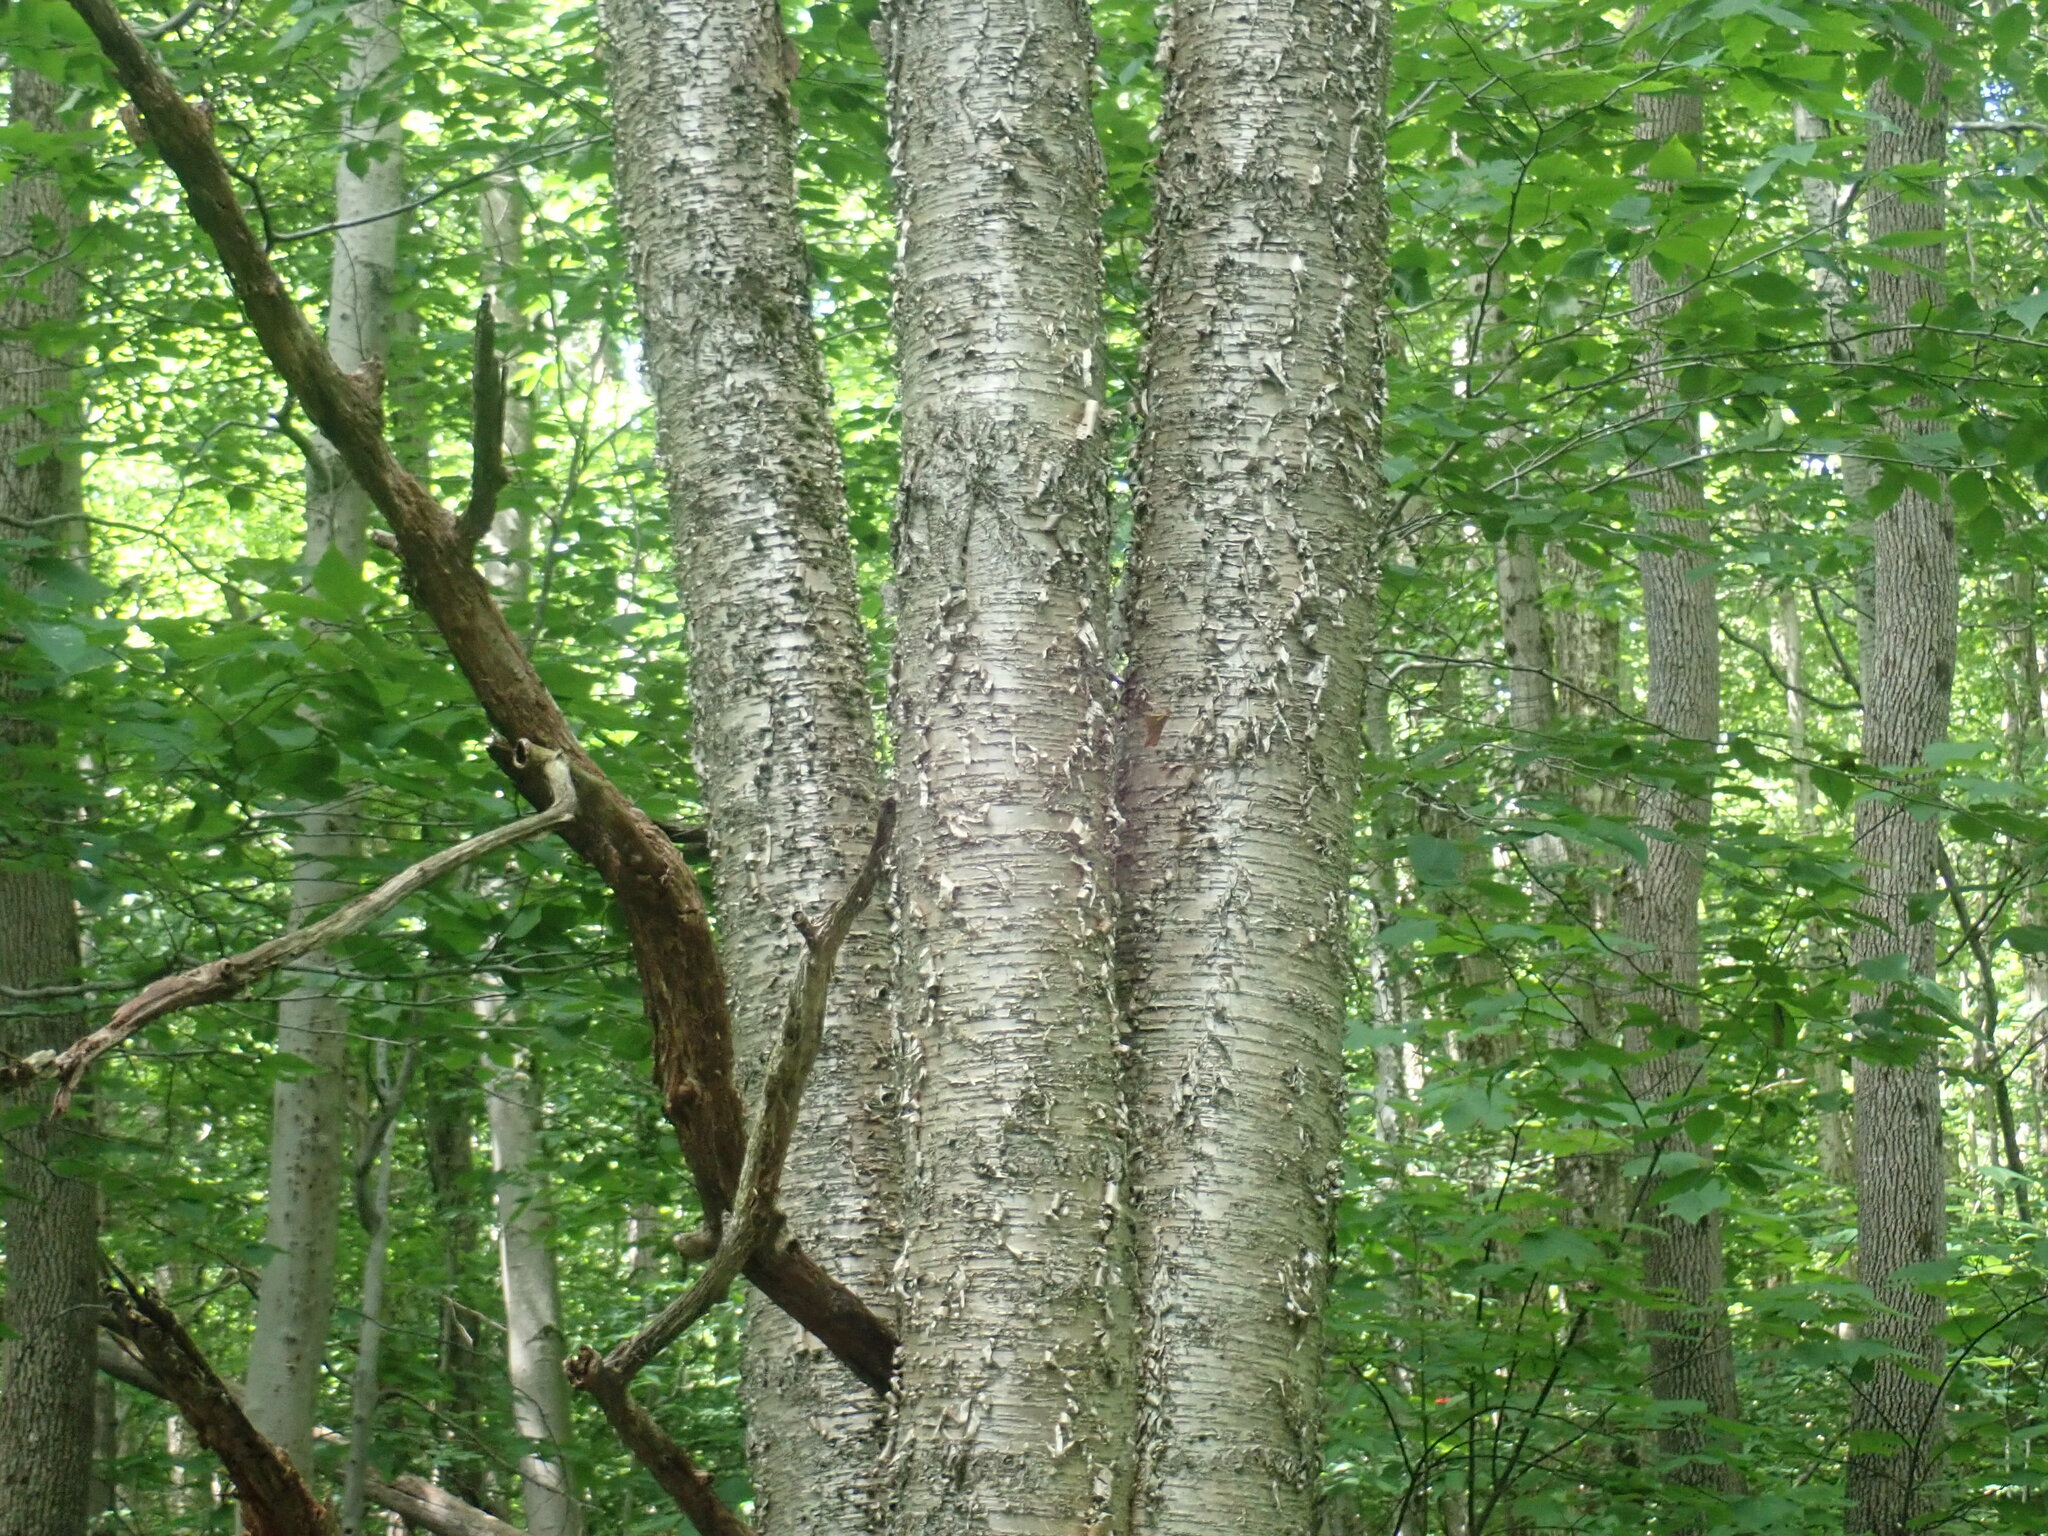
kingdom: Plantae
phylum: Tracheophyta
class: Magnoliopsida
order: Fagales
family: Betulaceae
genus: Betula
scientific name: Betula alleghaniensis
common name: Yellow birch
